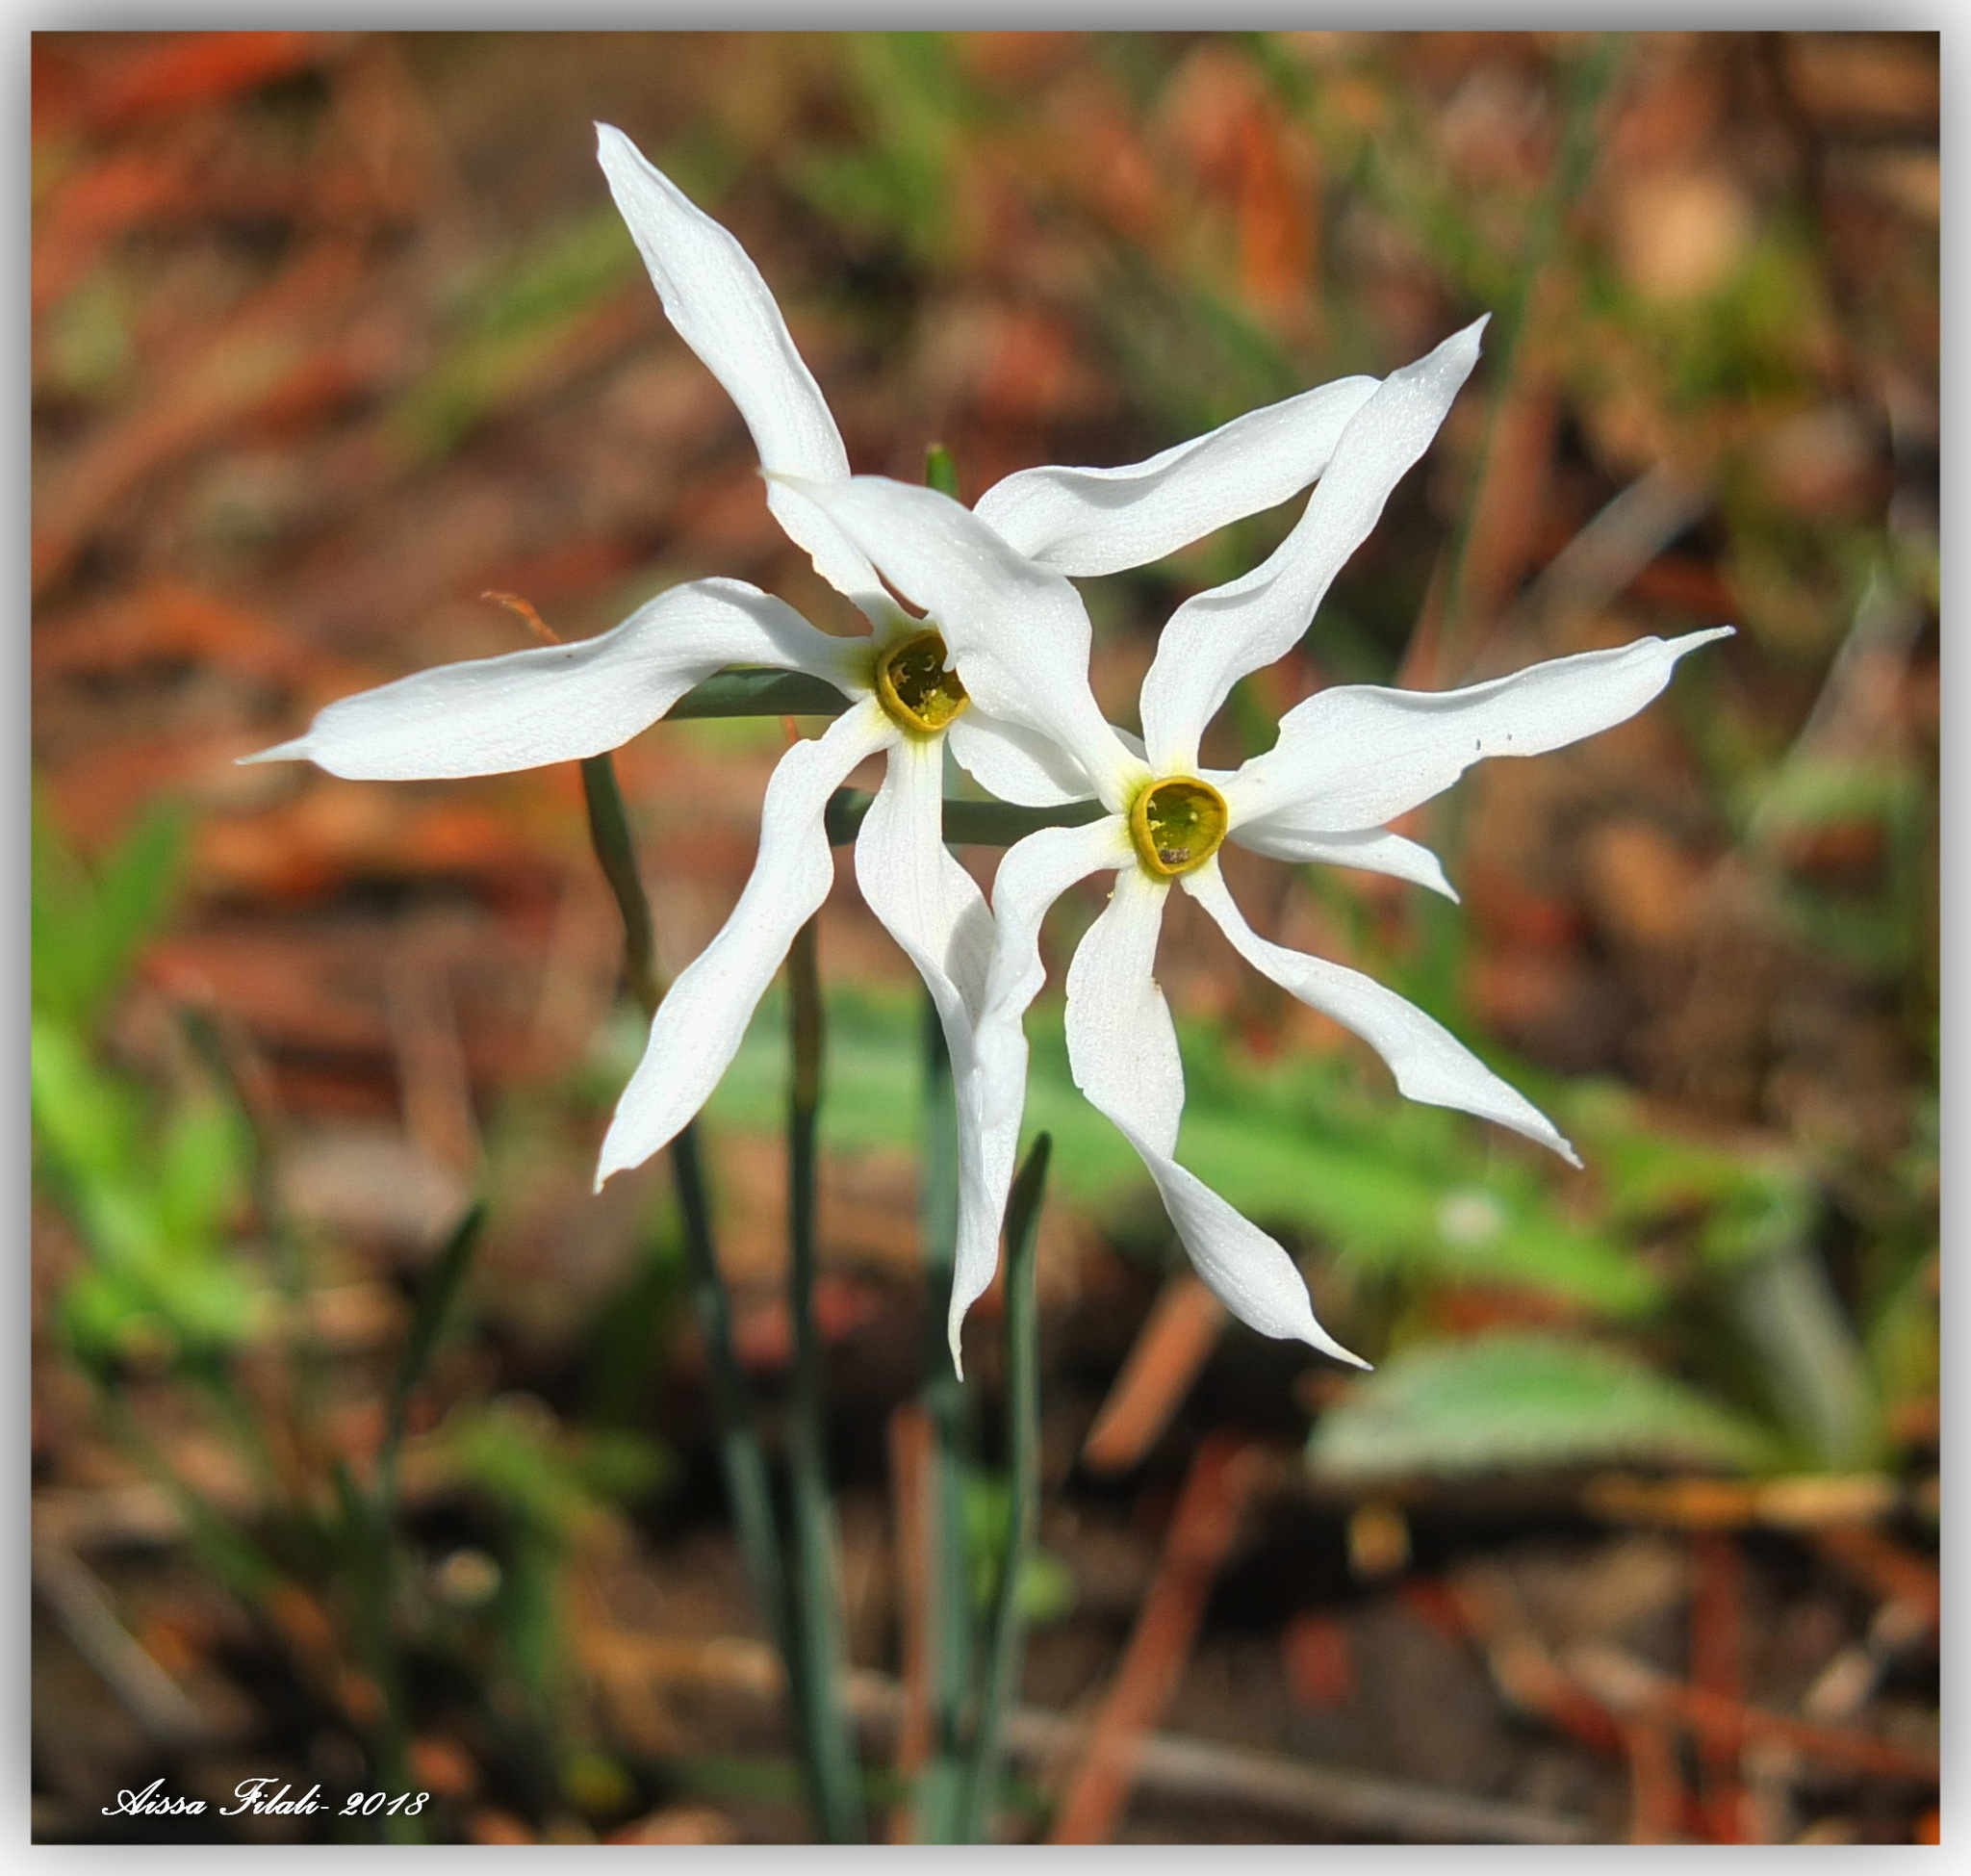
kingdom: Plantae
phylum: Tracheophyta
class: Liliopsida
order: Asparagales
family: Amaryllidaceae
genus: Narcissus
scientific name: Narcissus obsoletus
